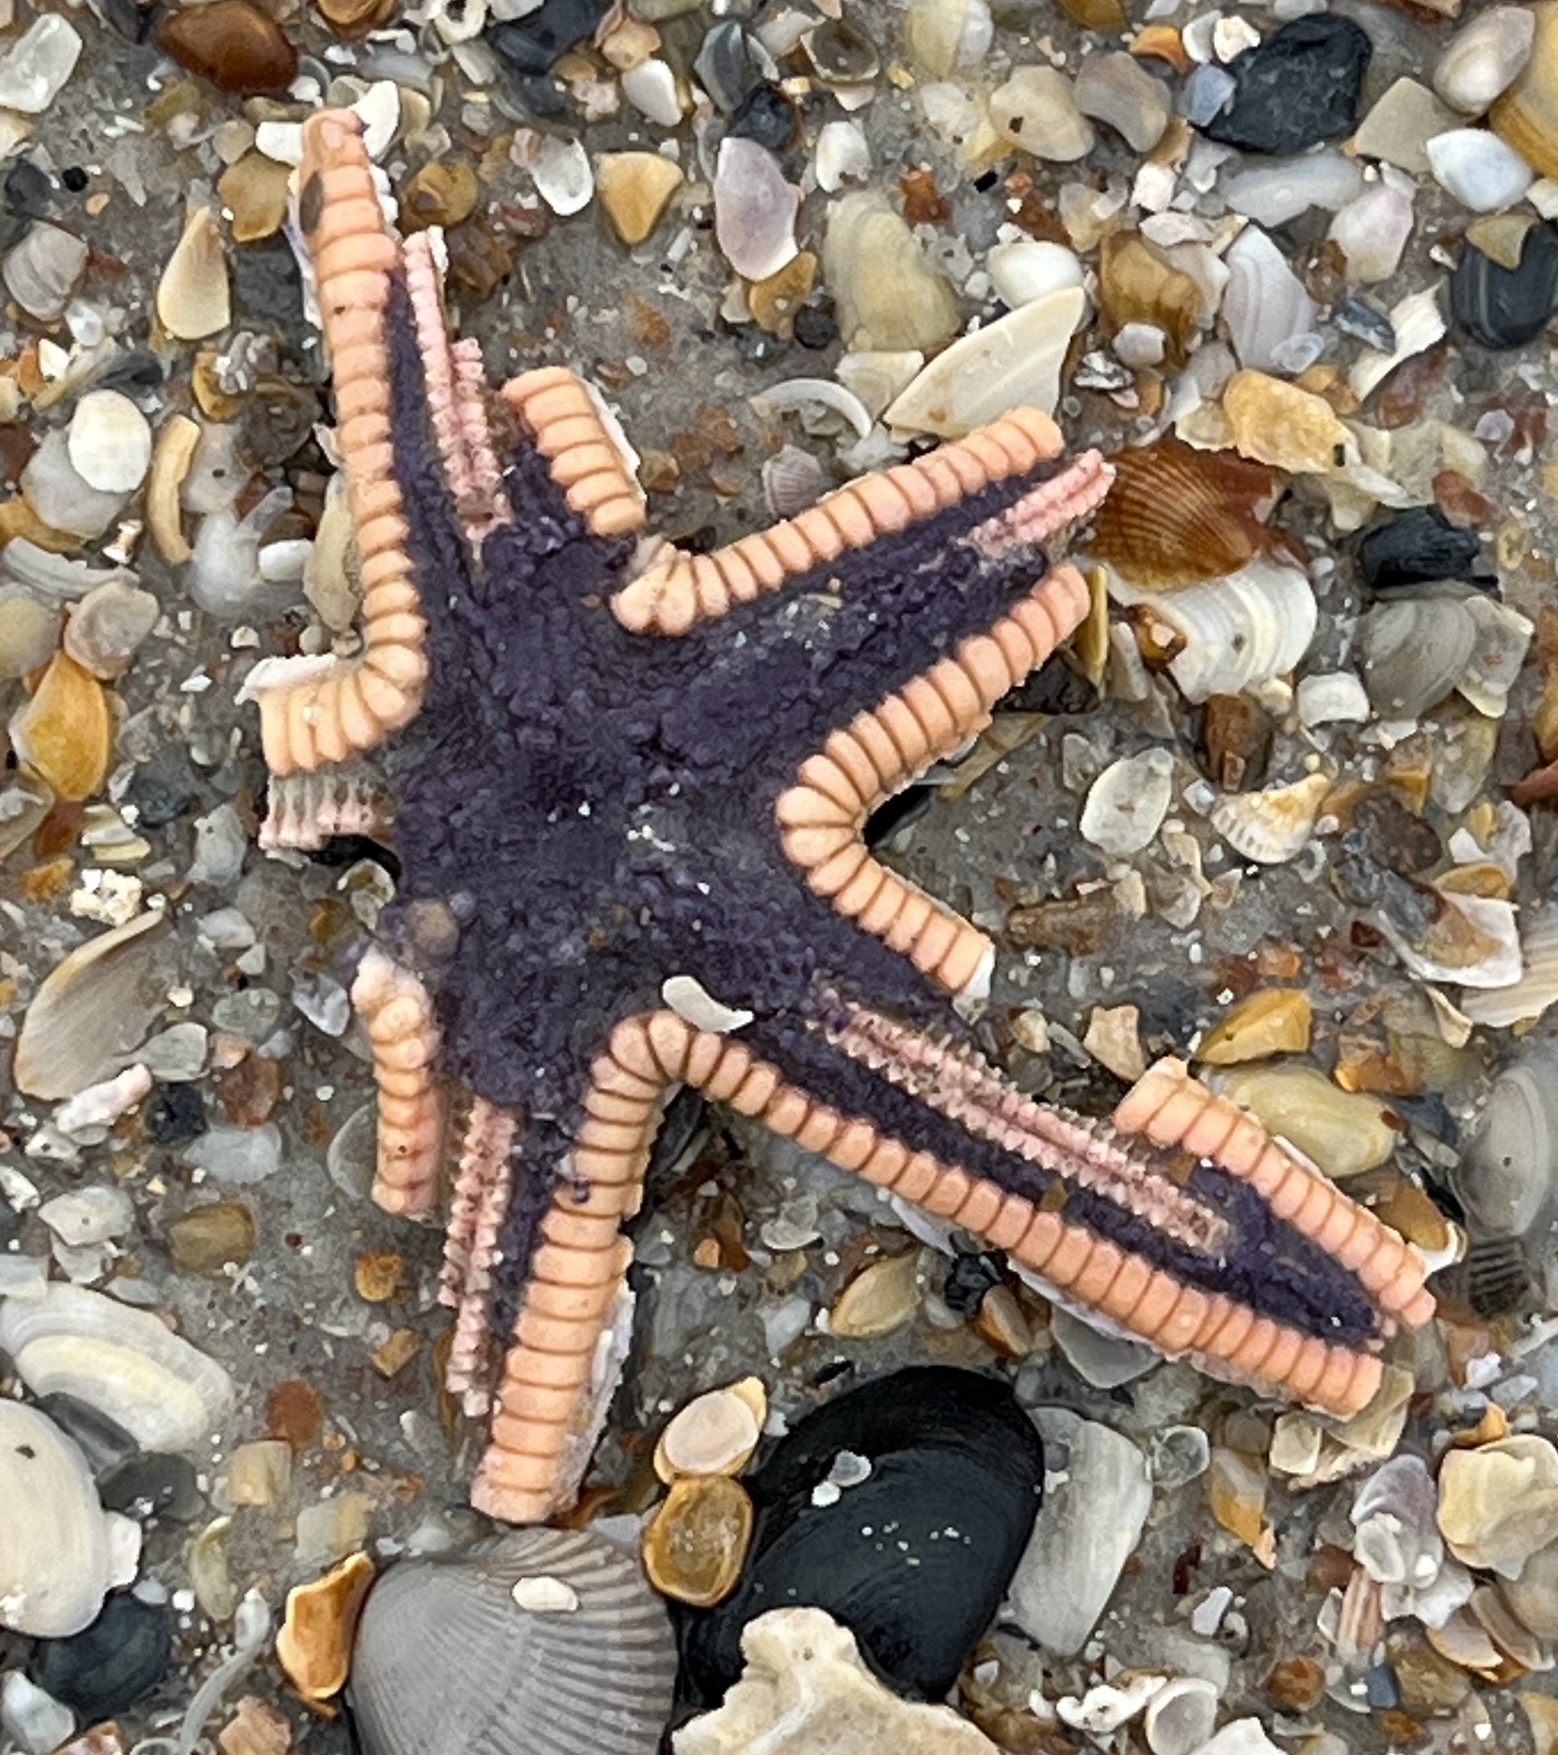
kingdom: Animalia
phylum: Echinodermata
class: Asteroidea
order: Paxillosida
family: Astropectinidae
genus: Astropecten
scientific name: Astropecten articulatus
